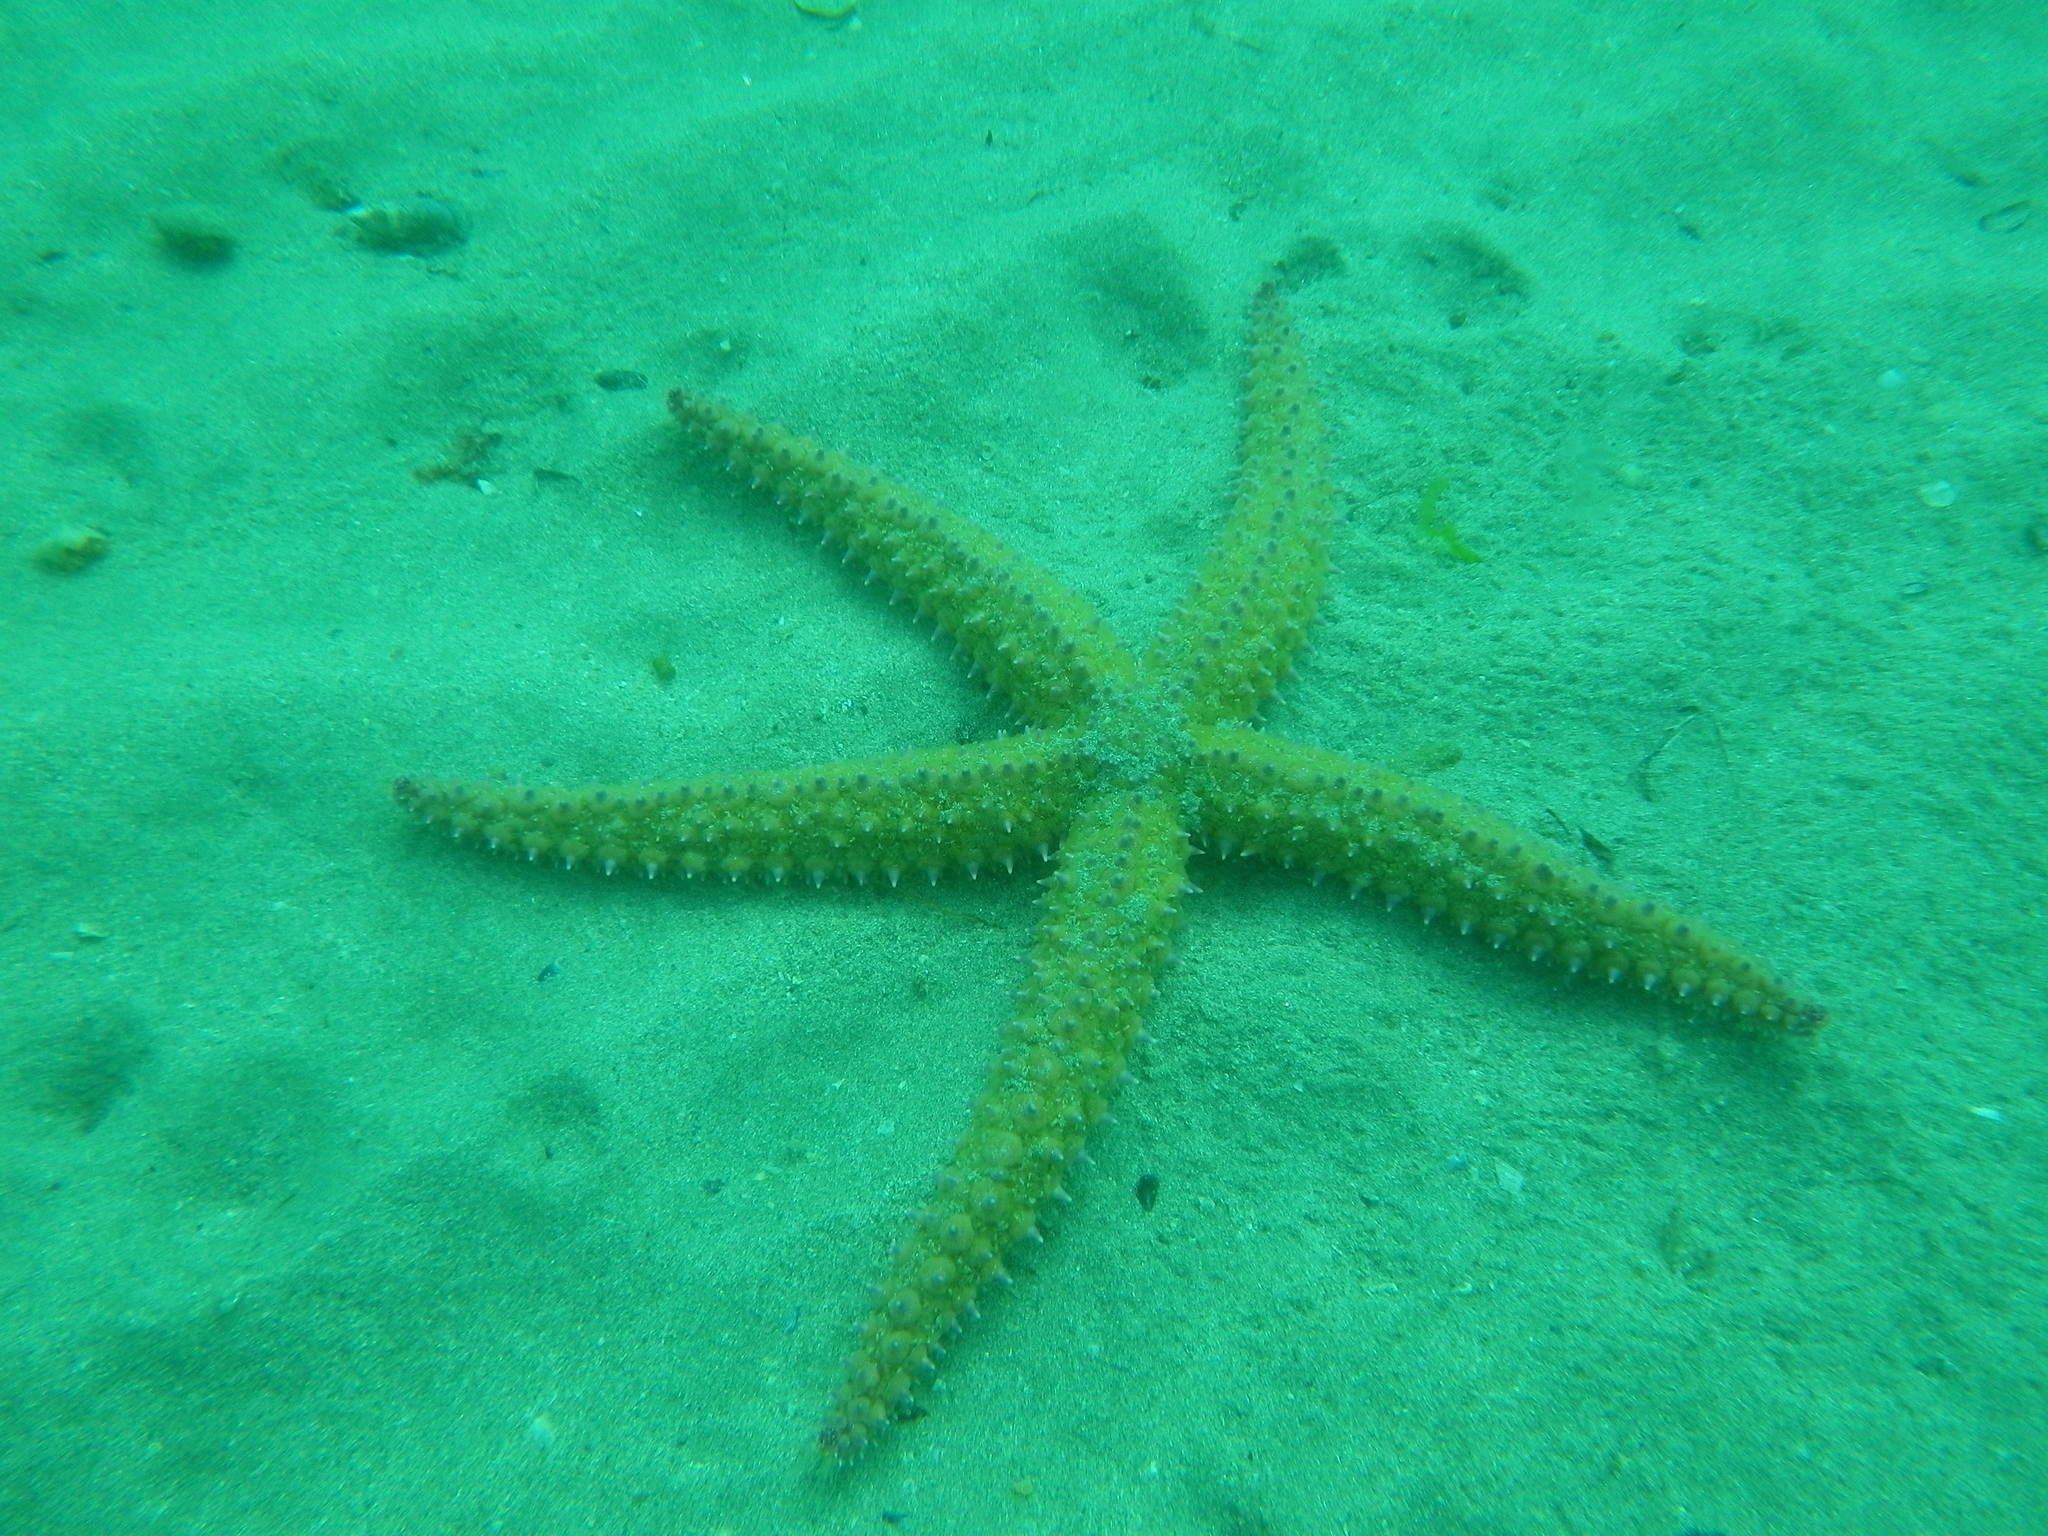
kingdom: Animalia
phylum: Echinodermata
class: Asteroidea
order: Forcipulatida
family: Asteriidae
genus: Marthasterias
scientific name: Marthasterias glacialis
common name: Spiny starfish
